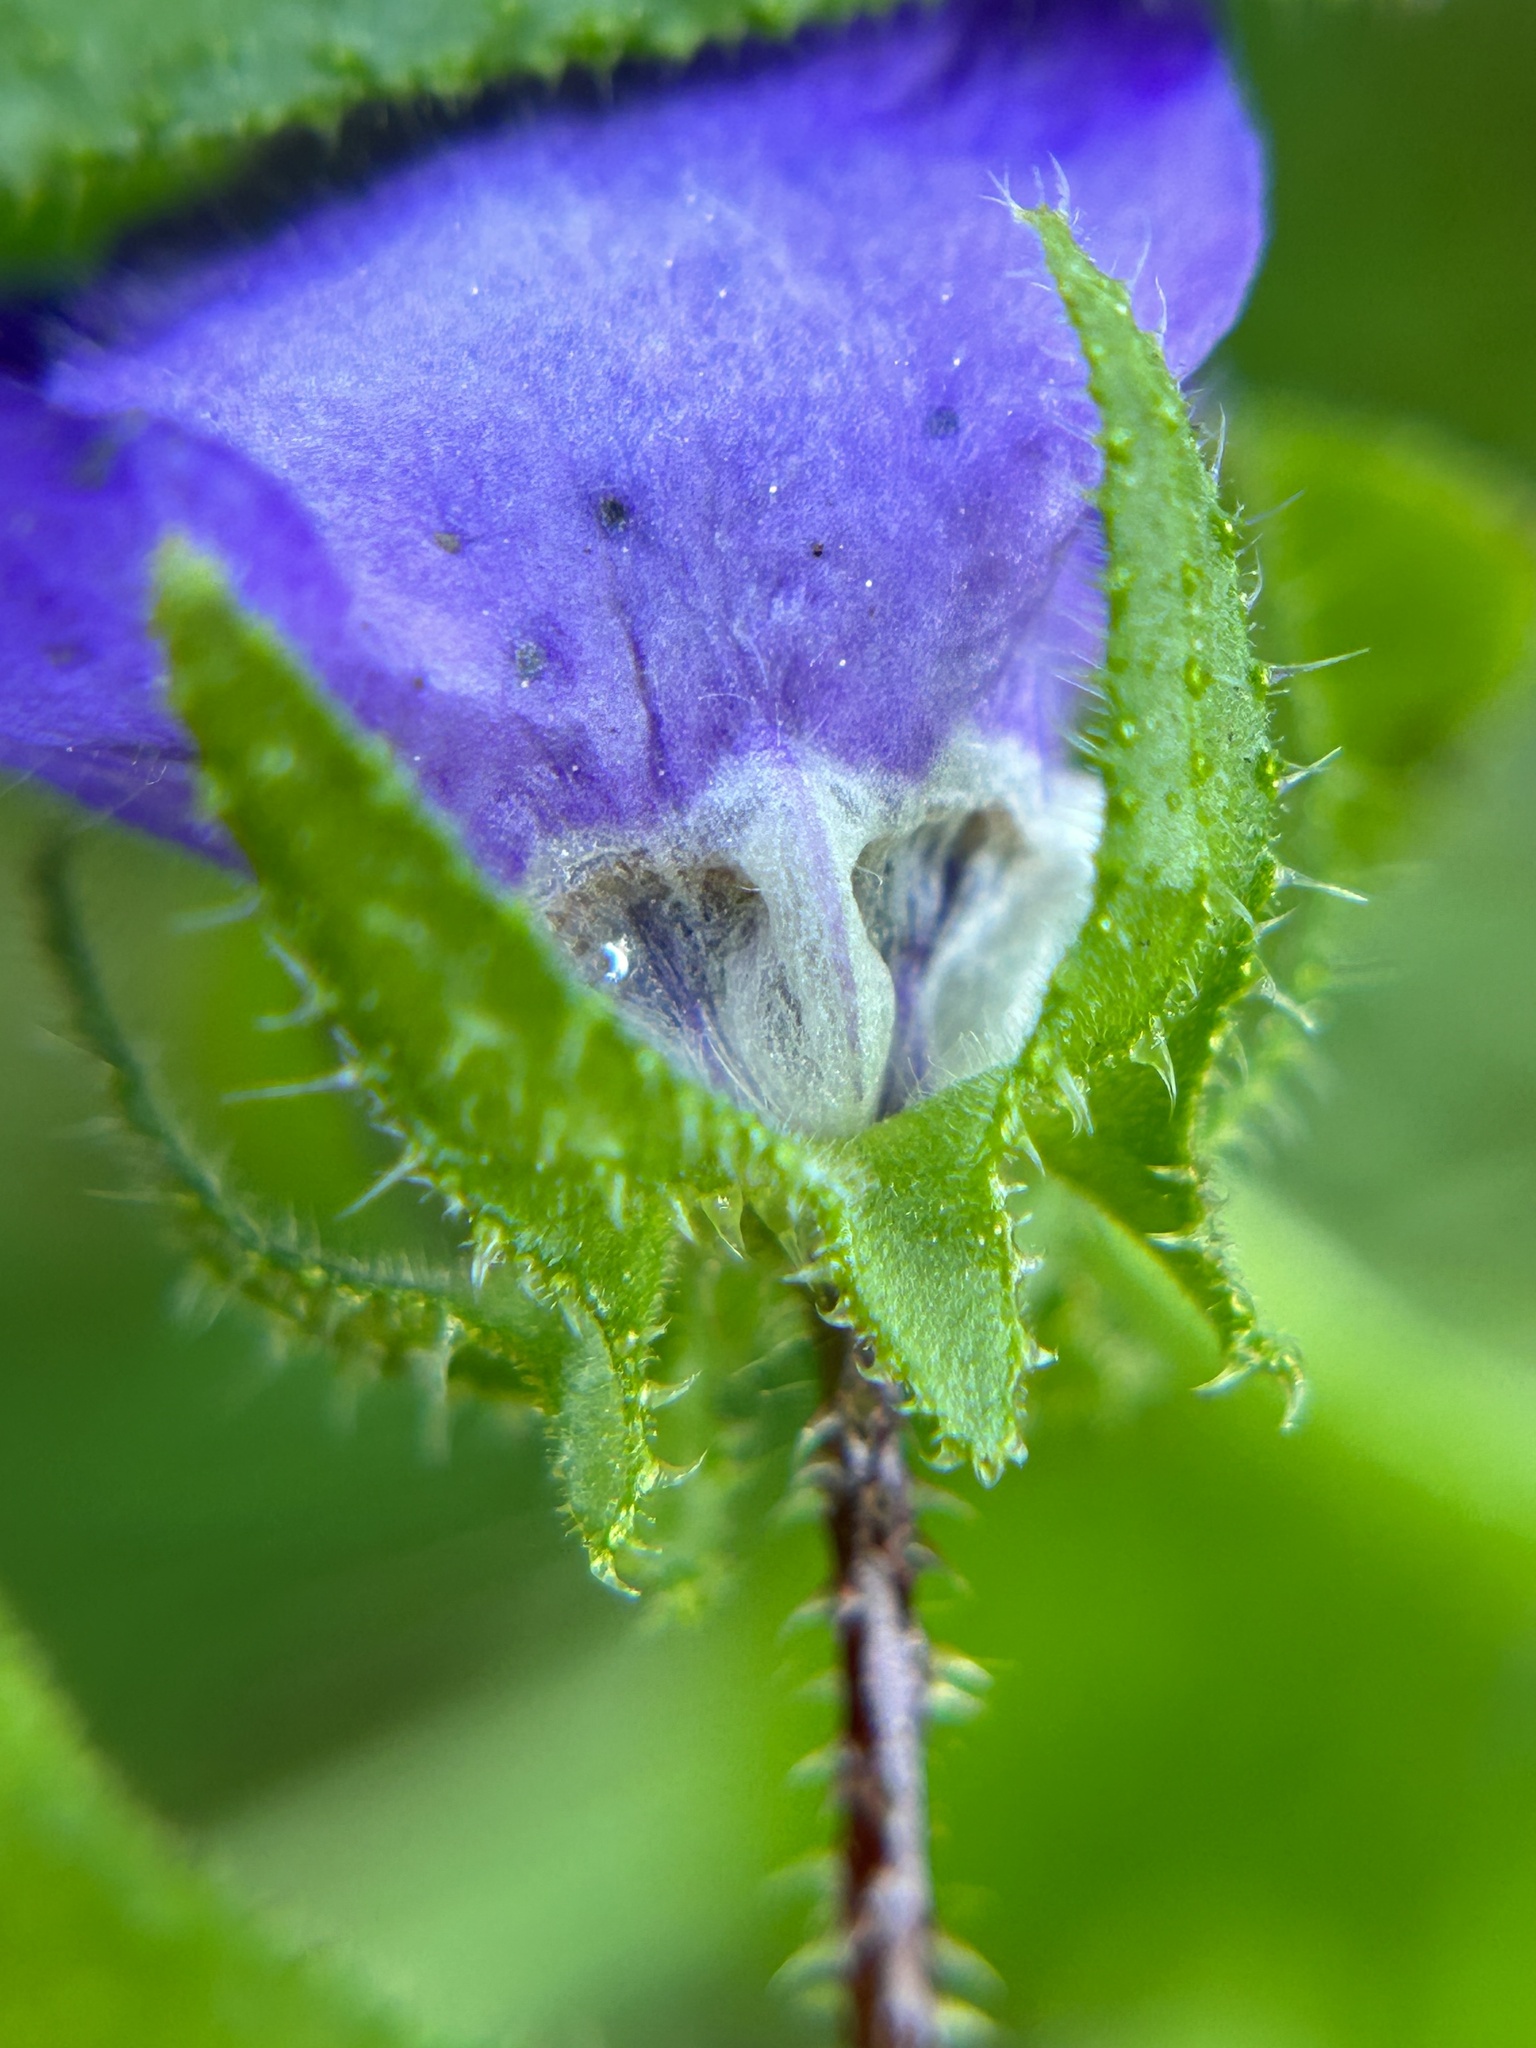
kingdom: Plantae
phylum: Tracheophyta
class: Magnoliopsida
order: Boraginales
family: Hydrophyllaceae
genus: Pholistoma
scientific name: Pholistoma auritum
